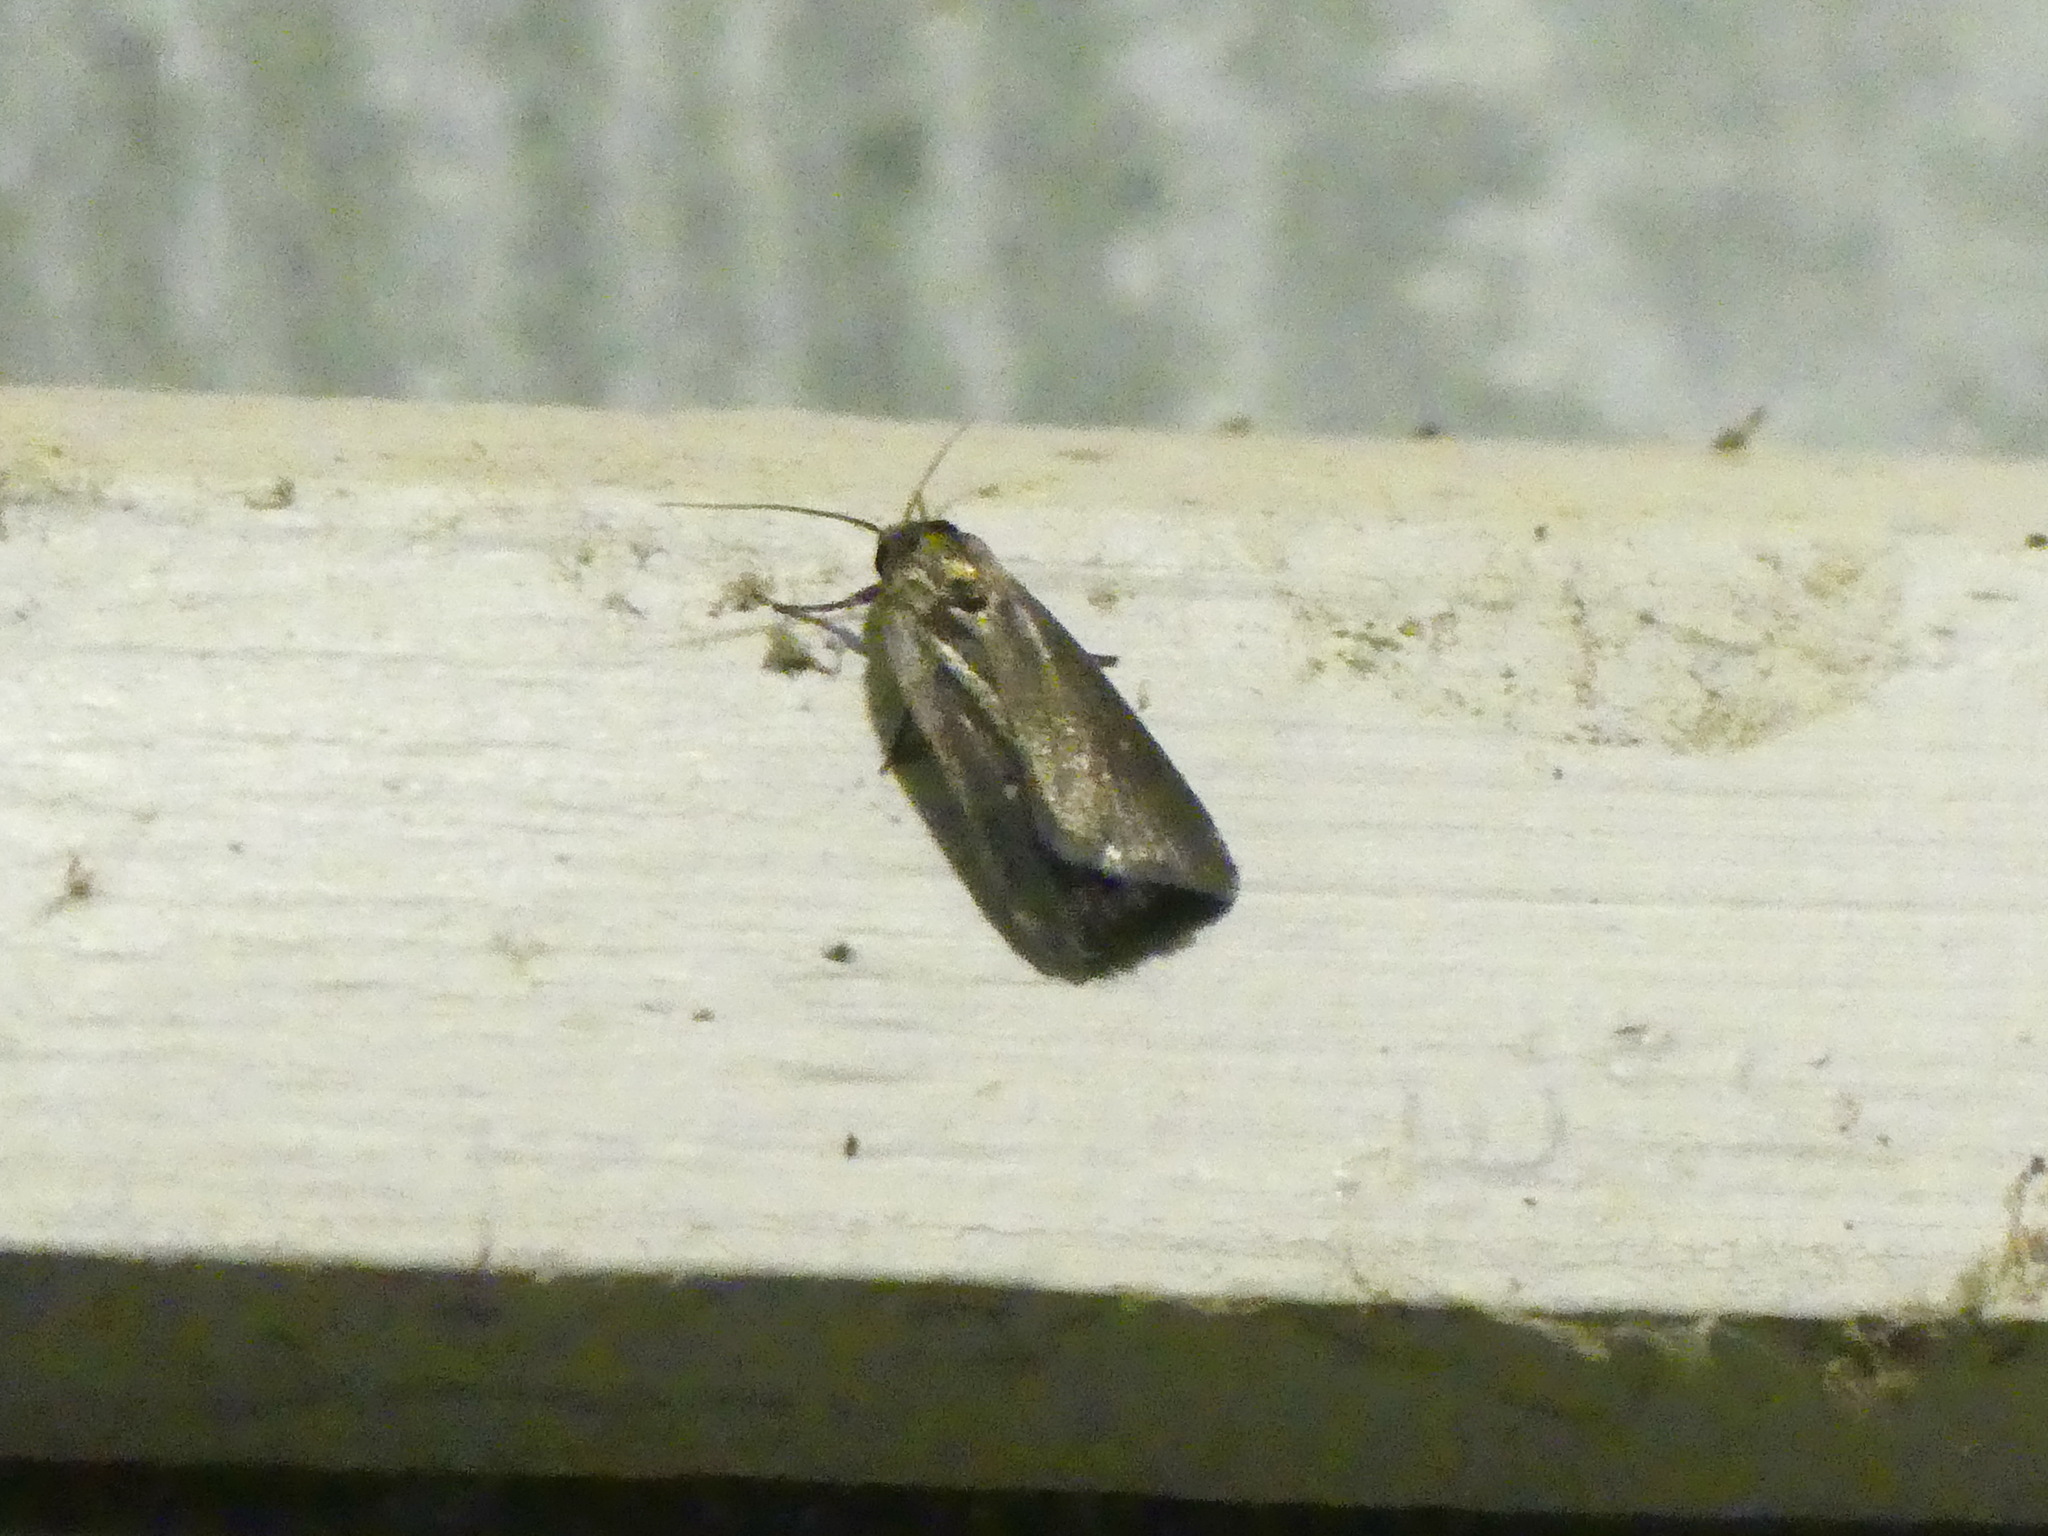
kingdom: Animalia
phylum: Arthropoda
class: Insecta
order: Lepidoptera
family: Noctuidae
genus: Proxenus
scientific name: Proxenus miranda
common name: Miranda moth
